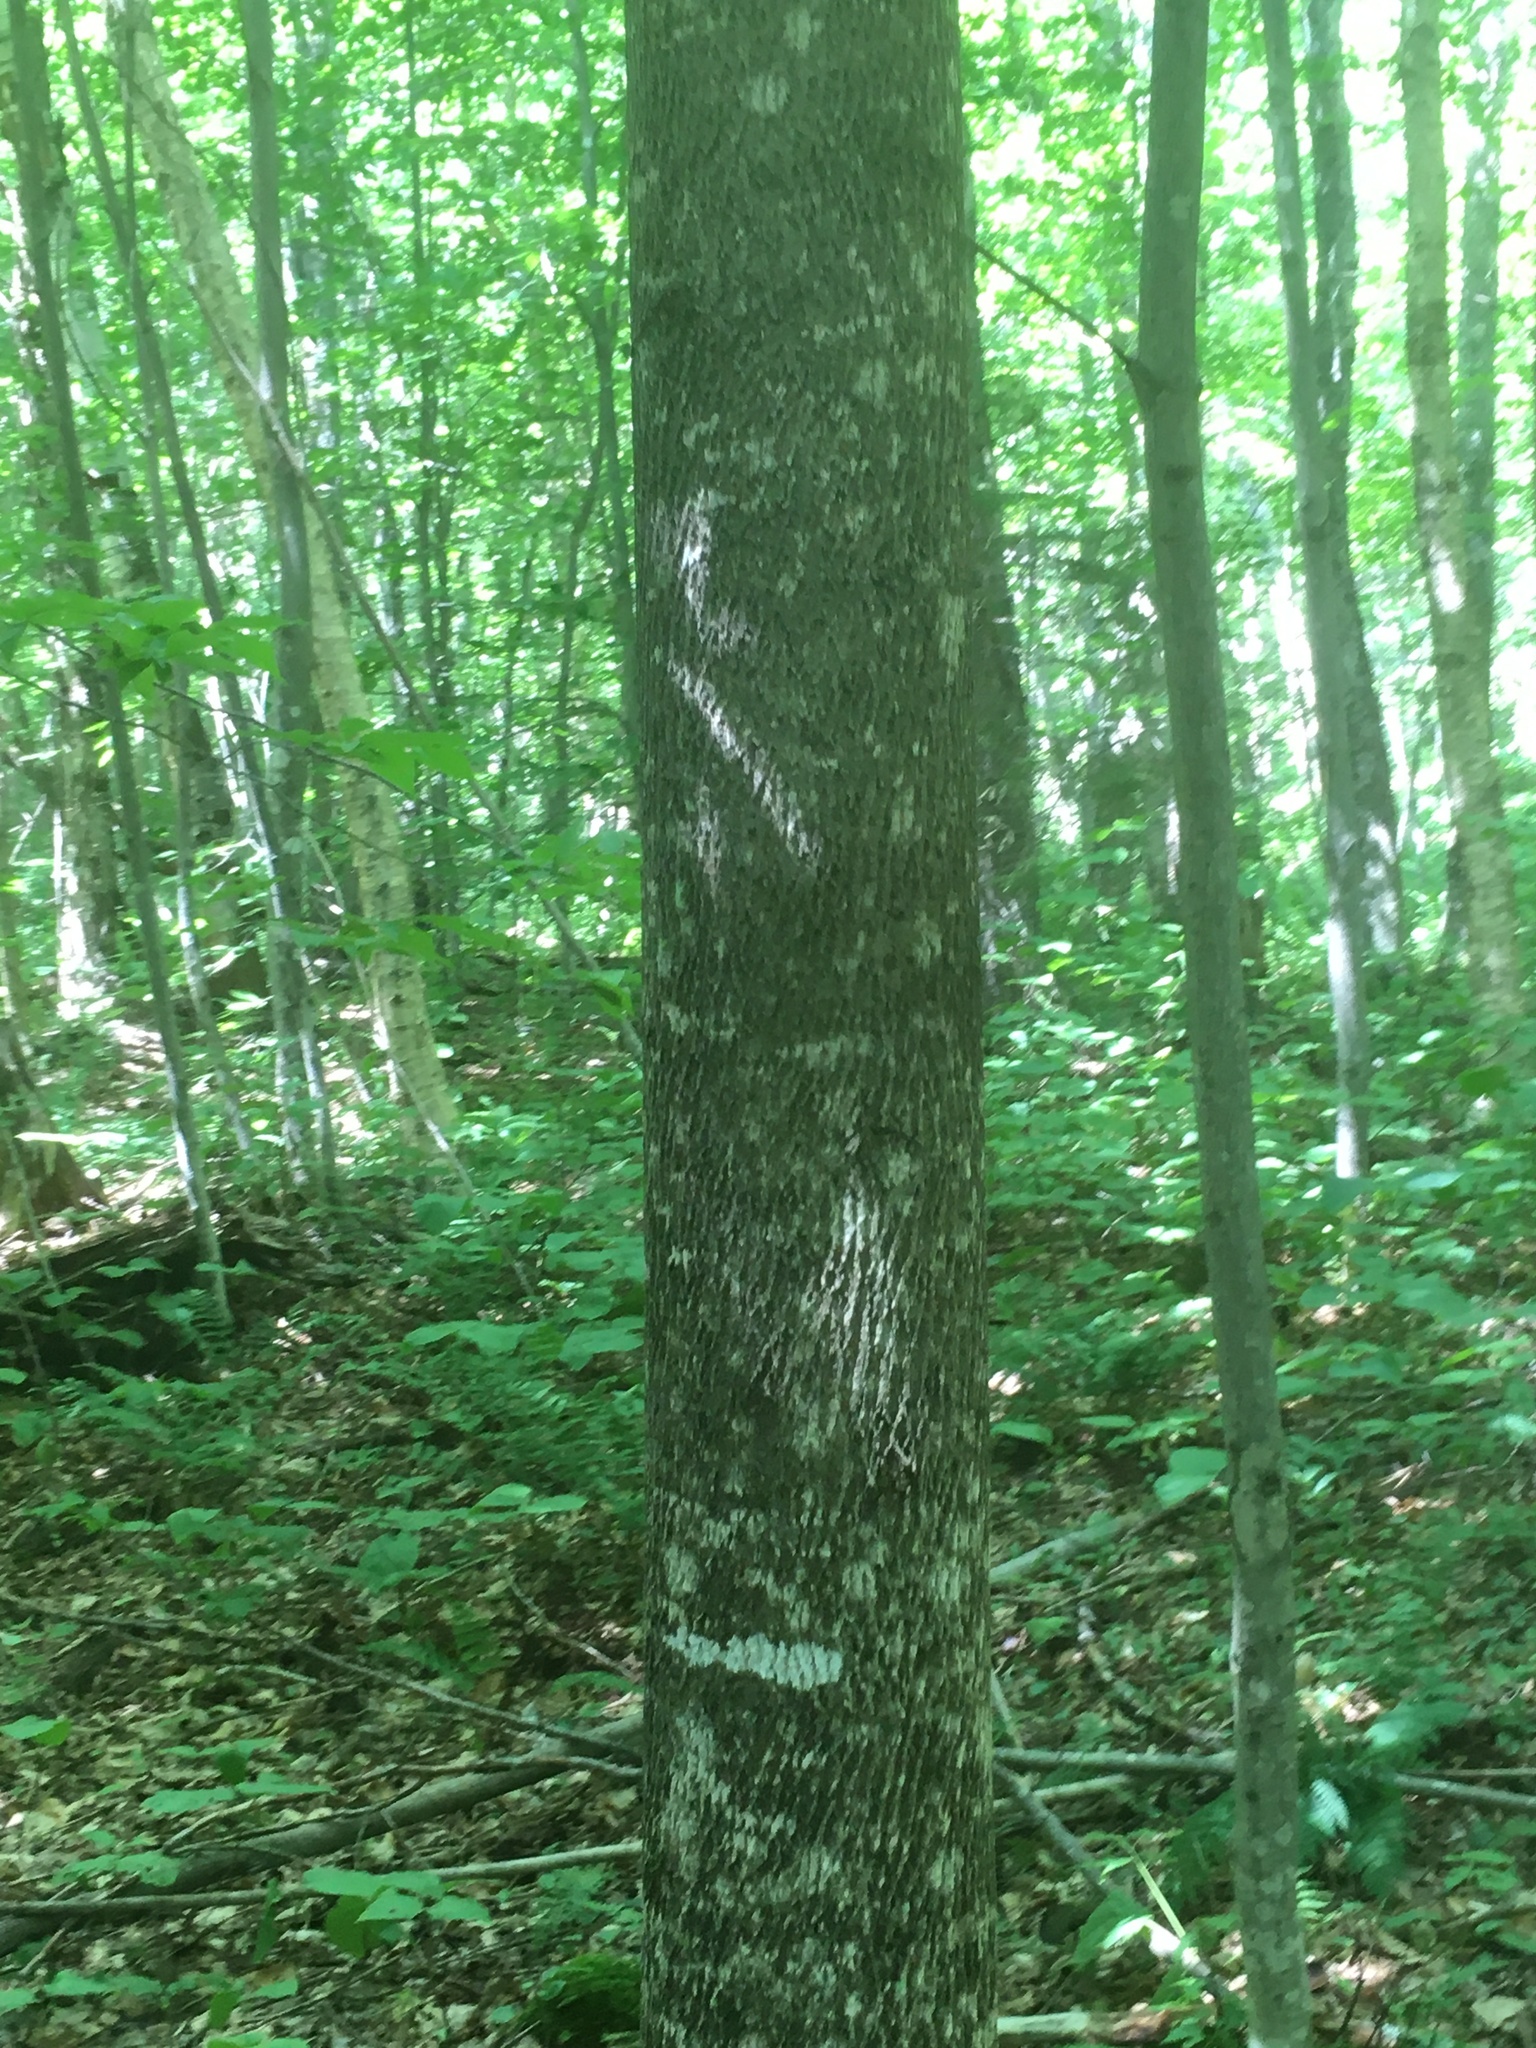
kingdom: Plantae
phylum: Tracheophyta
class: Magnoliopsida
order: Lamiales
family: Oleaceae
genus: Fraxinus
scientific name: Fraxinus americana
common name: White ash
